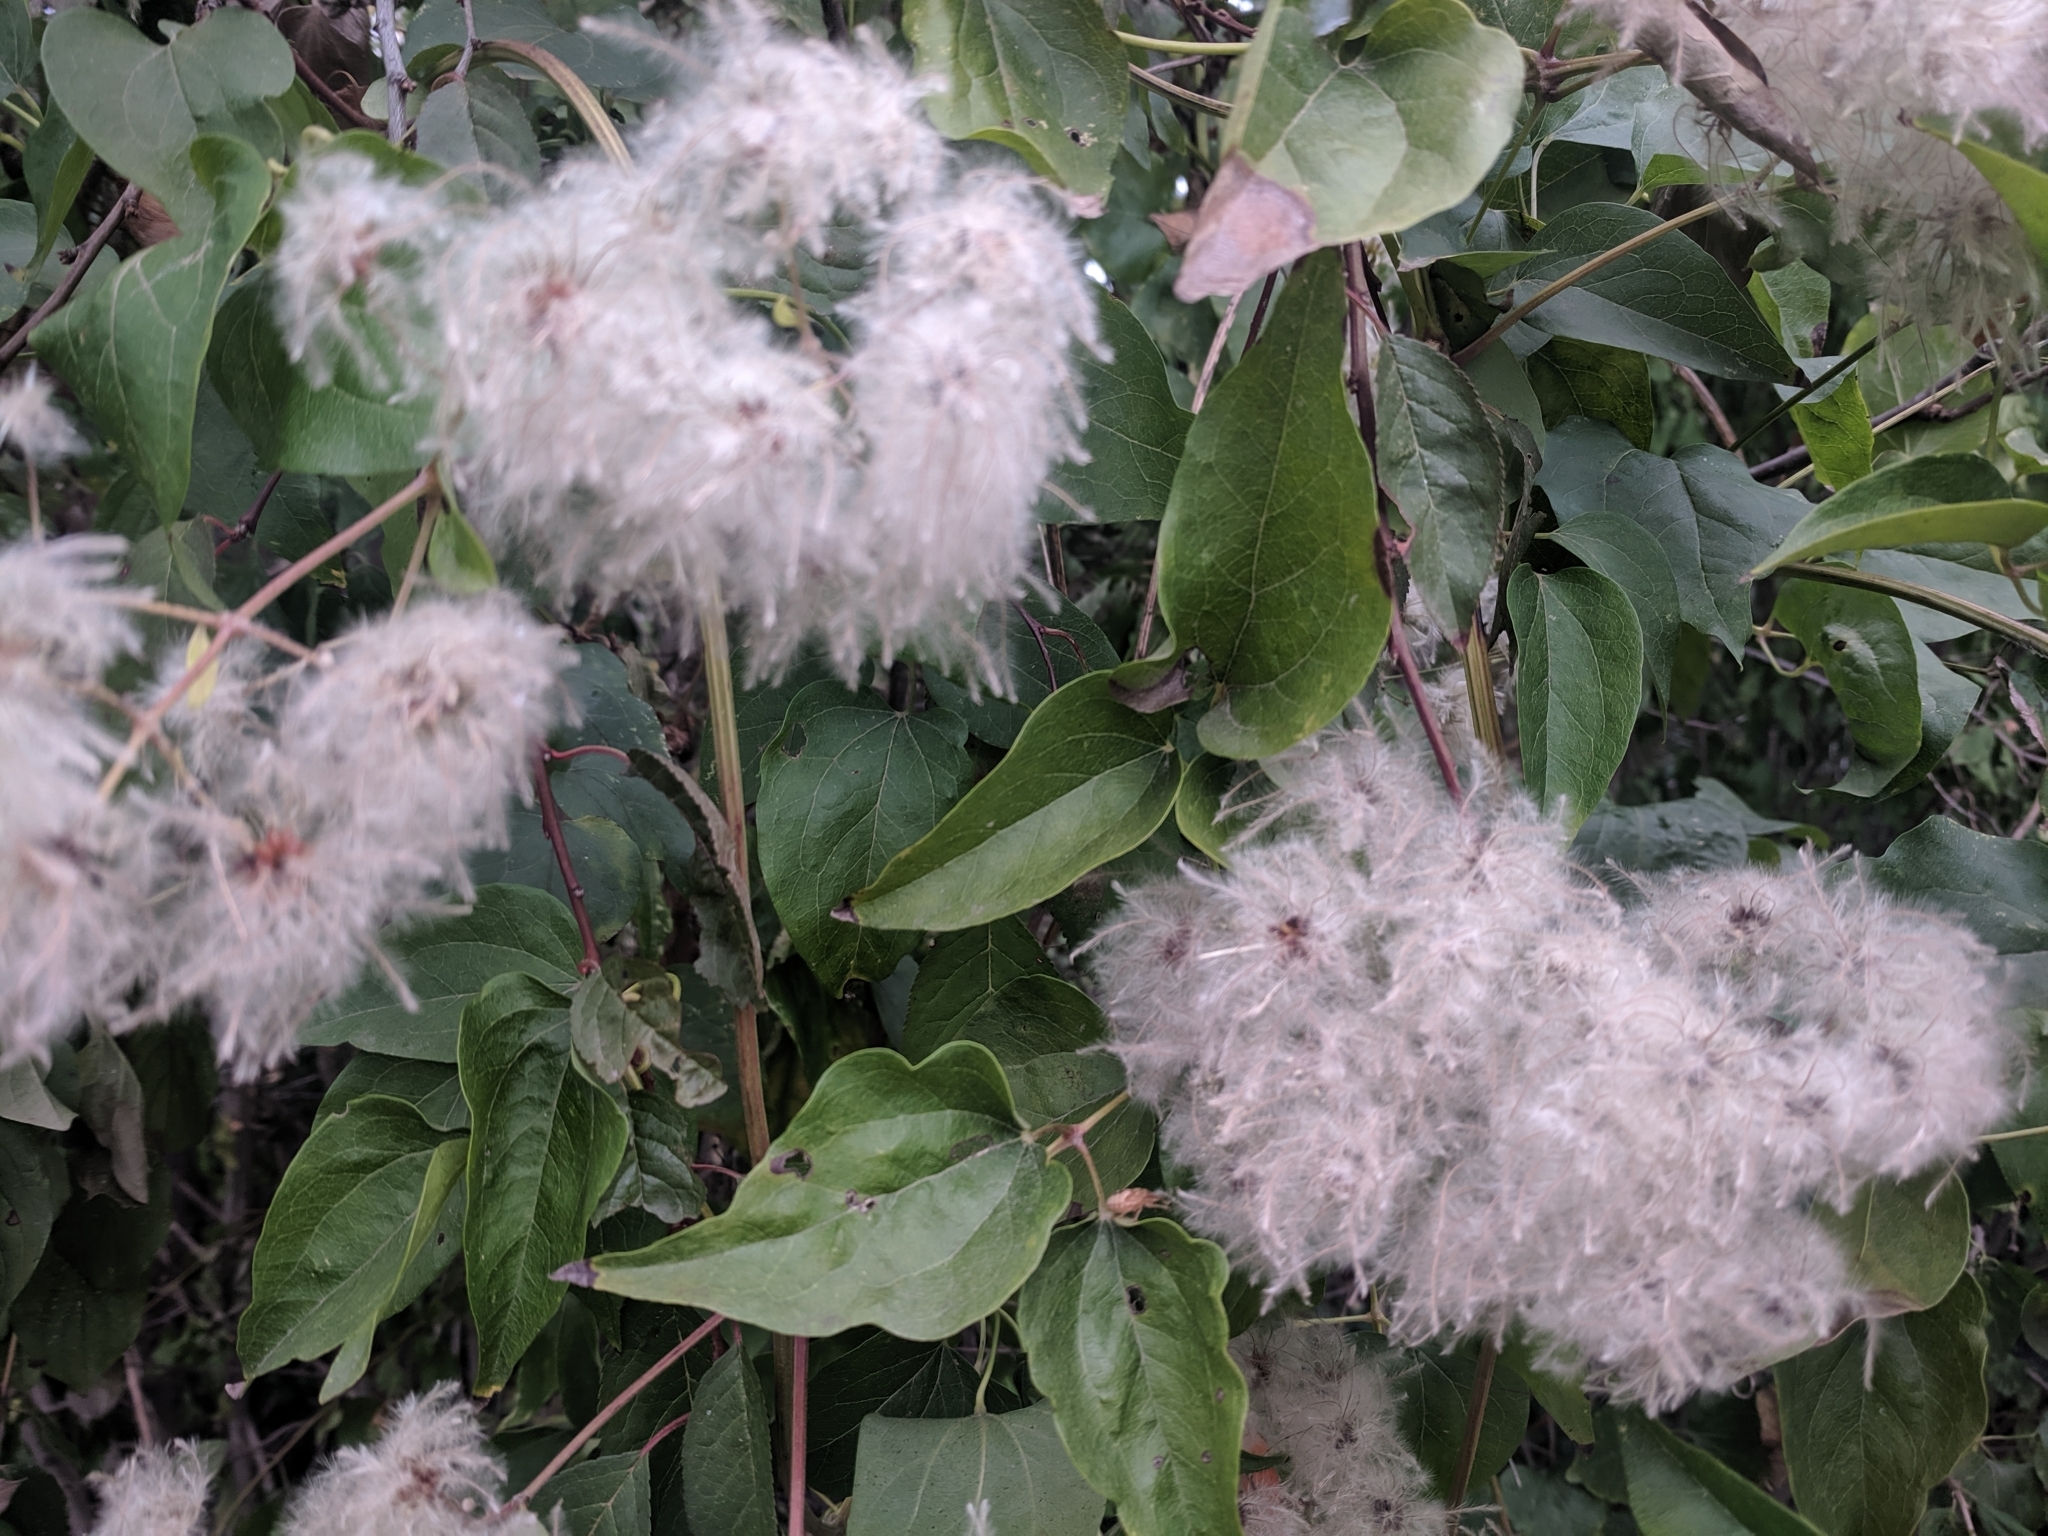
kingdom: Plantae
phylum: Tracheophyta
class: Magnoliopsida
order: Ranunculales
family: Ranunculaceae
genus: Clematis
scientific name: Clematis vitalba
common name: Evergreen clematis
